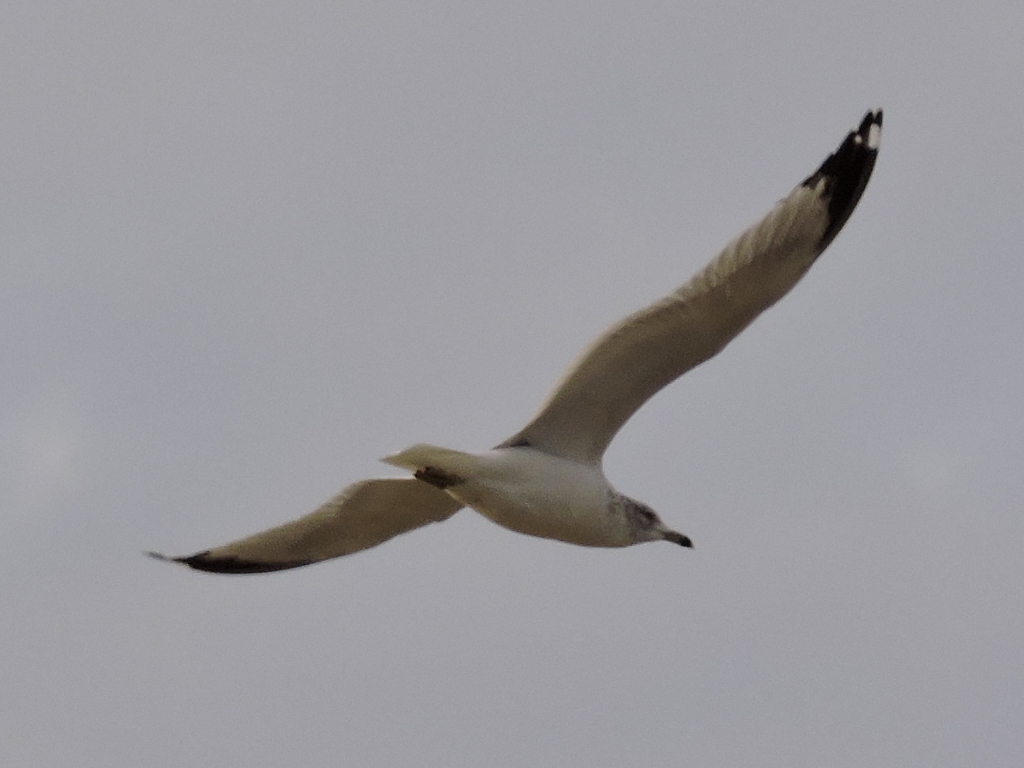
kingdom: Animalia
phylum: Chordata
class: Aves
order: Charadriiformes
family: Laridae
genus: Larus
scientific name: Larus delawarensis
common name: Ring-billed gull
